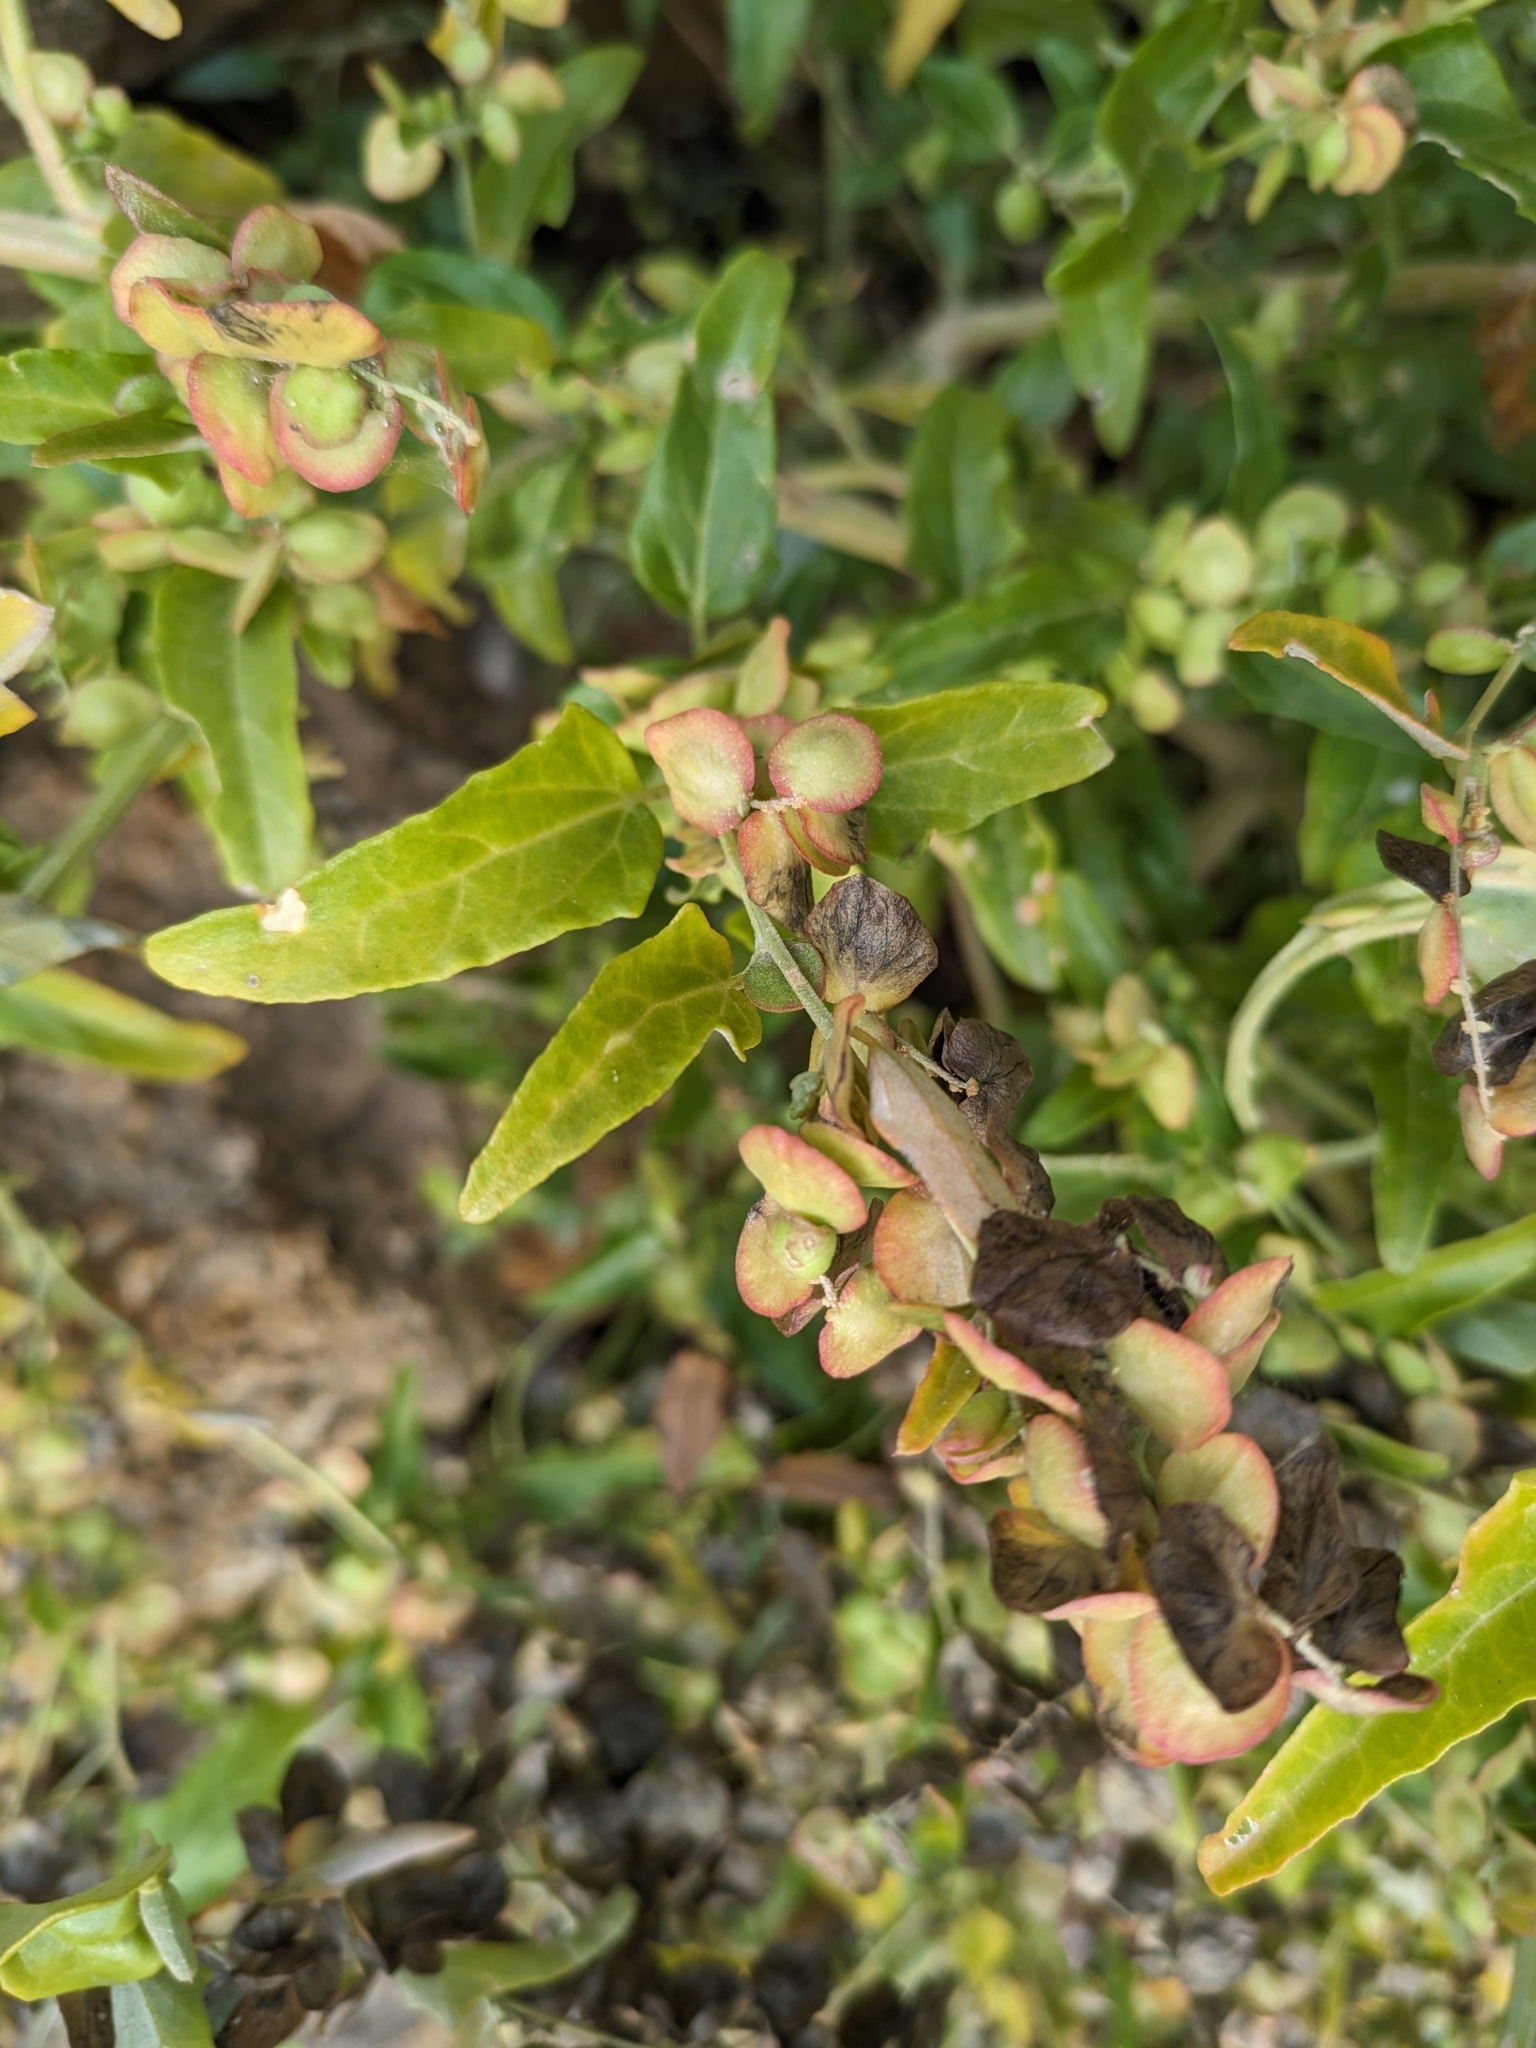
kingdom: Plantae
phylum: Tracheophyta
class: Magnoliopsida
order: Caryophyllales
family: Amaranthaceae
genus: Atriplex
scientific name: Atriplex sagittata
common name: Purple orache
